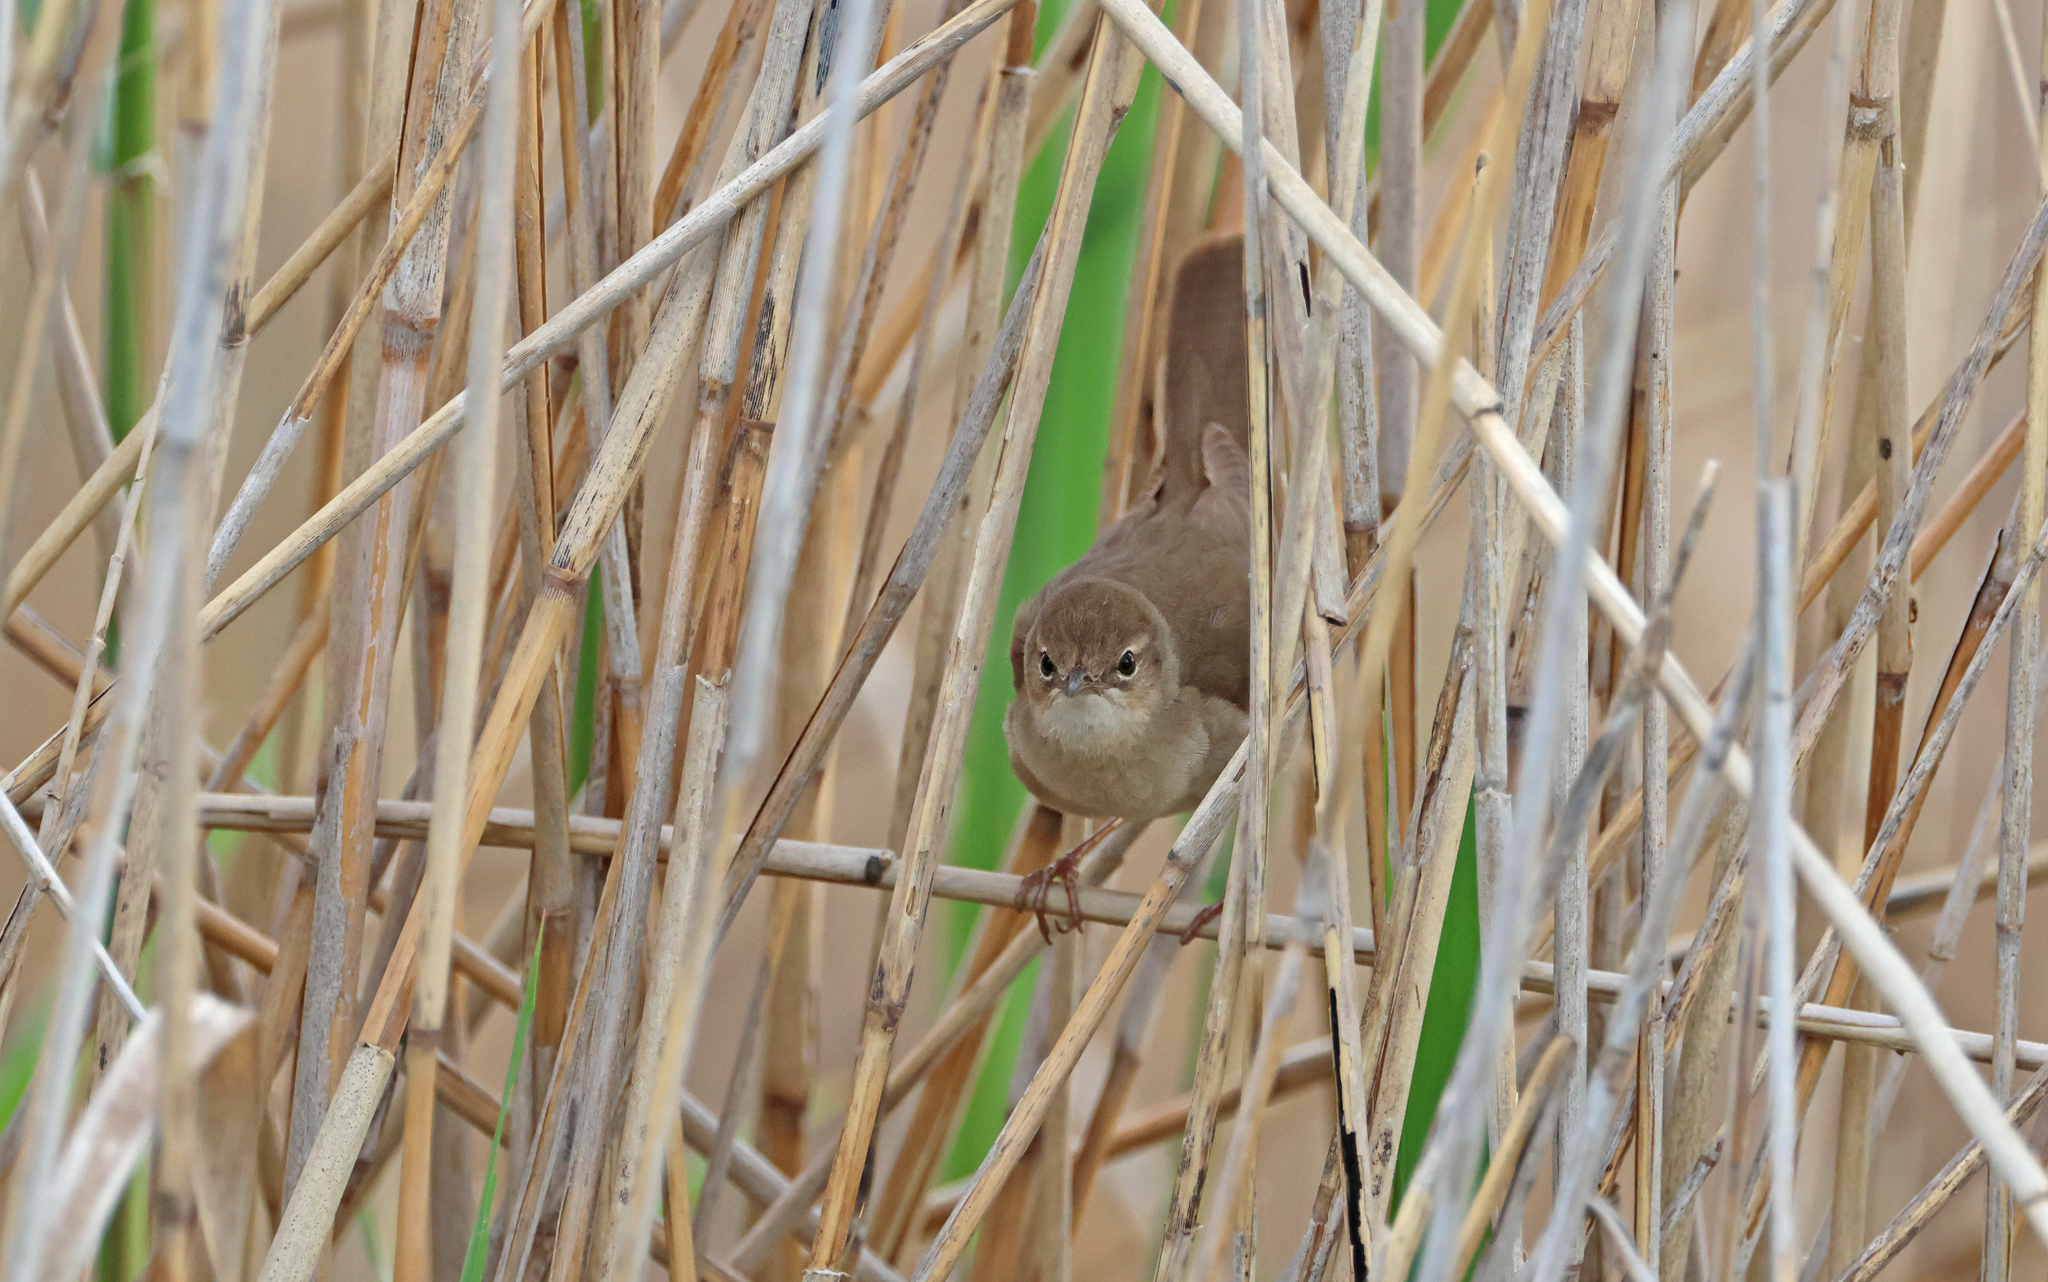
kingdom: Animalia
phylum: Chordata
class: Aves
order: Passeriformes
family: Locustellidae
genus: Locustella
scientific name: Locustella luscinioides
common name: Savi's warbler
